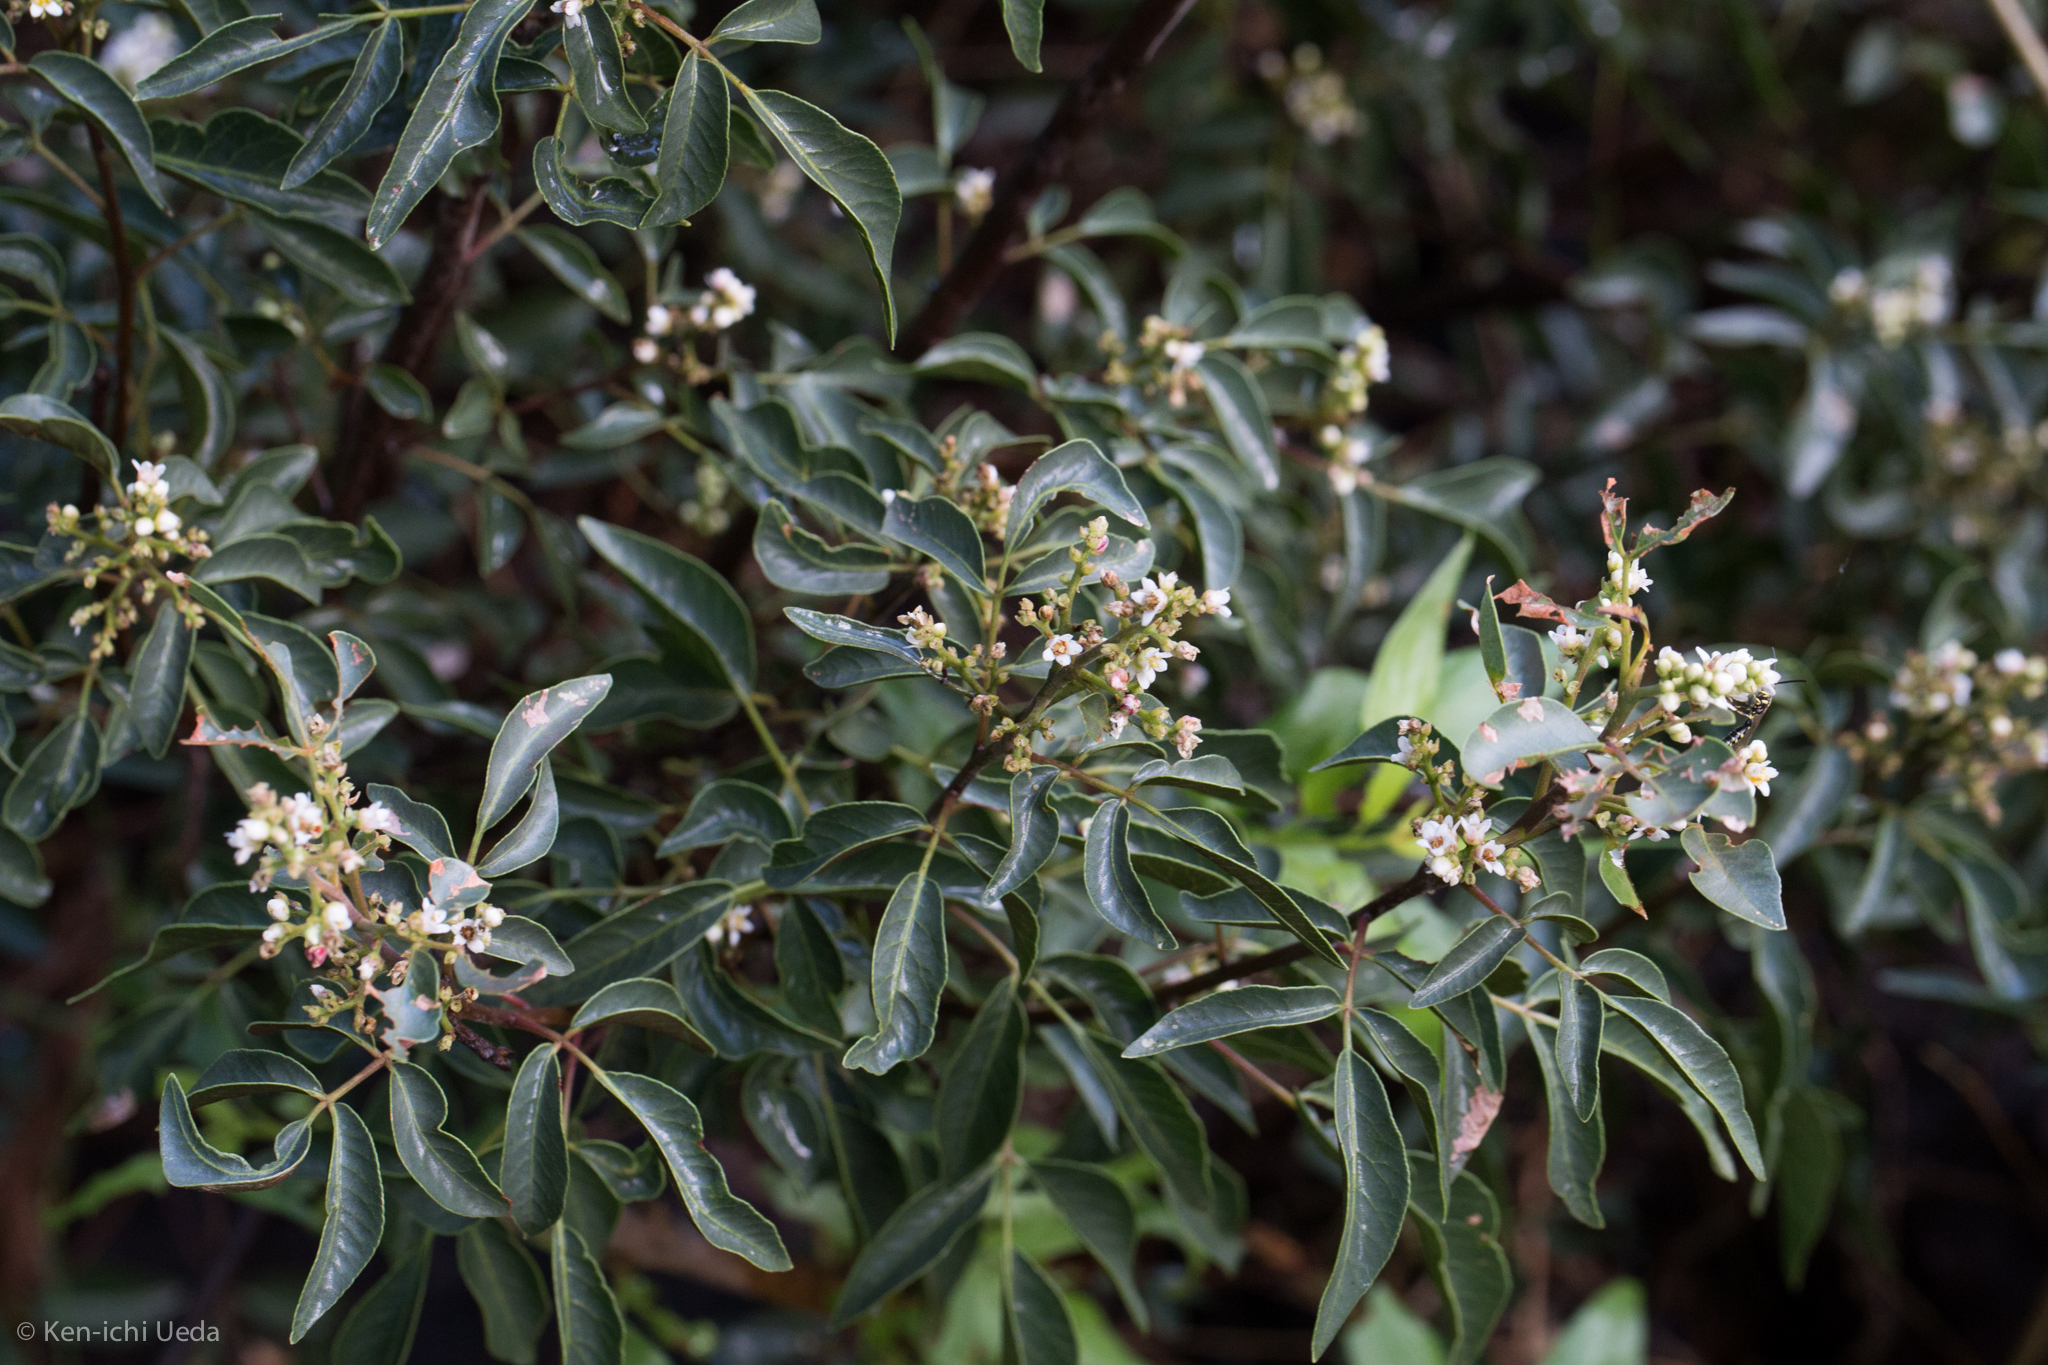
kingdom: Plantae
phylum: Tracheophyta
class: Magnoliopsida
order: Sapindales
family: Anacardiaceae
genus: Rhus
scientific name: Rhus virens
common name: Evergreen sumac
